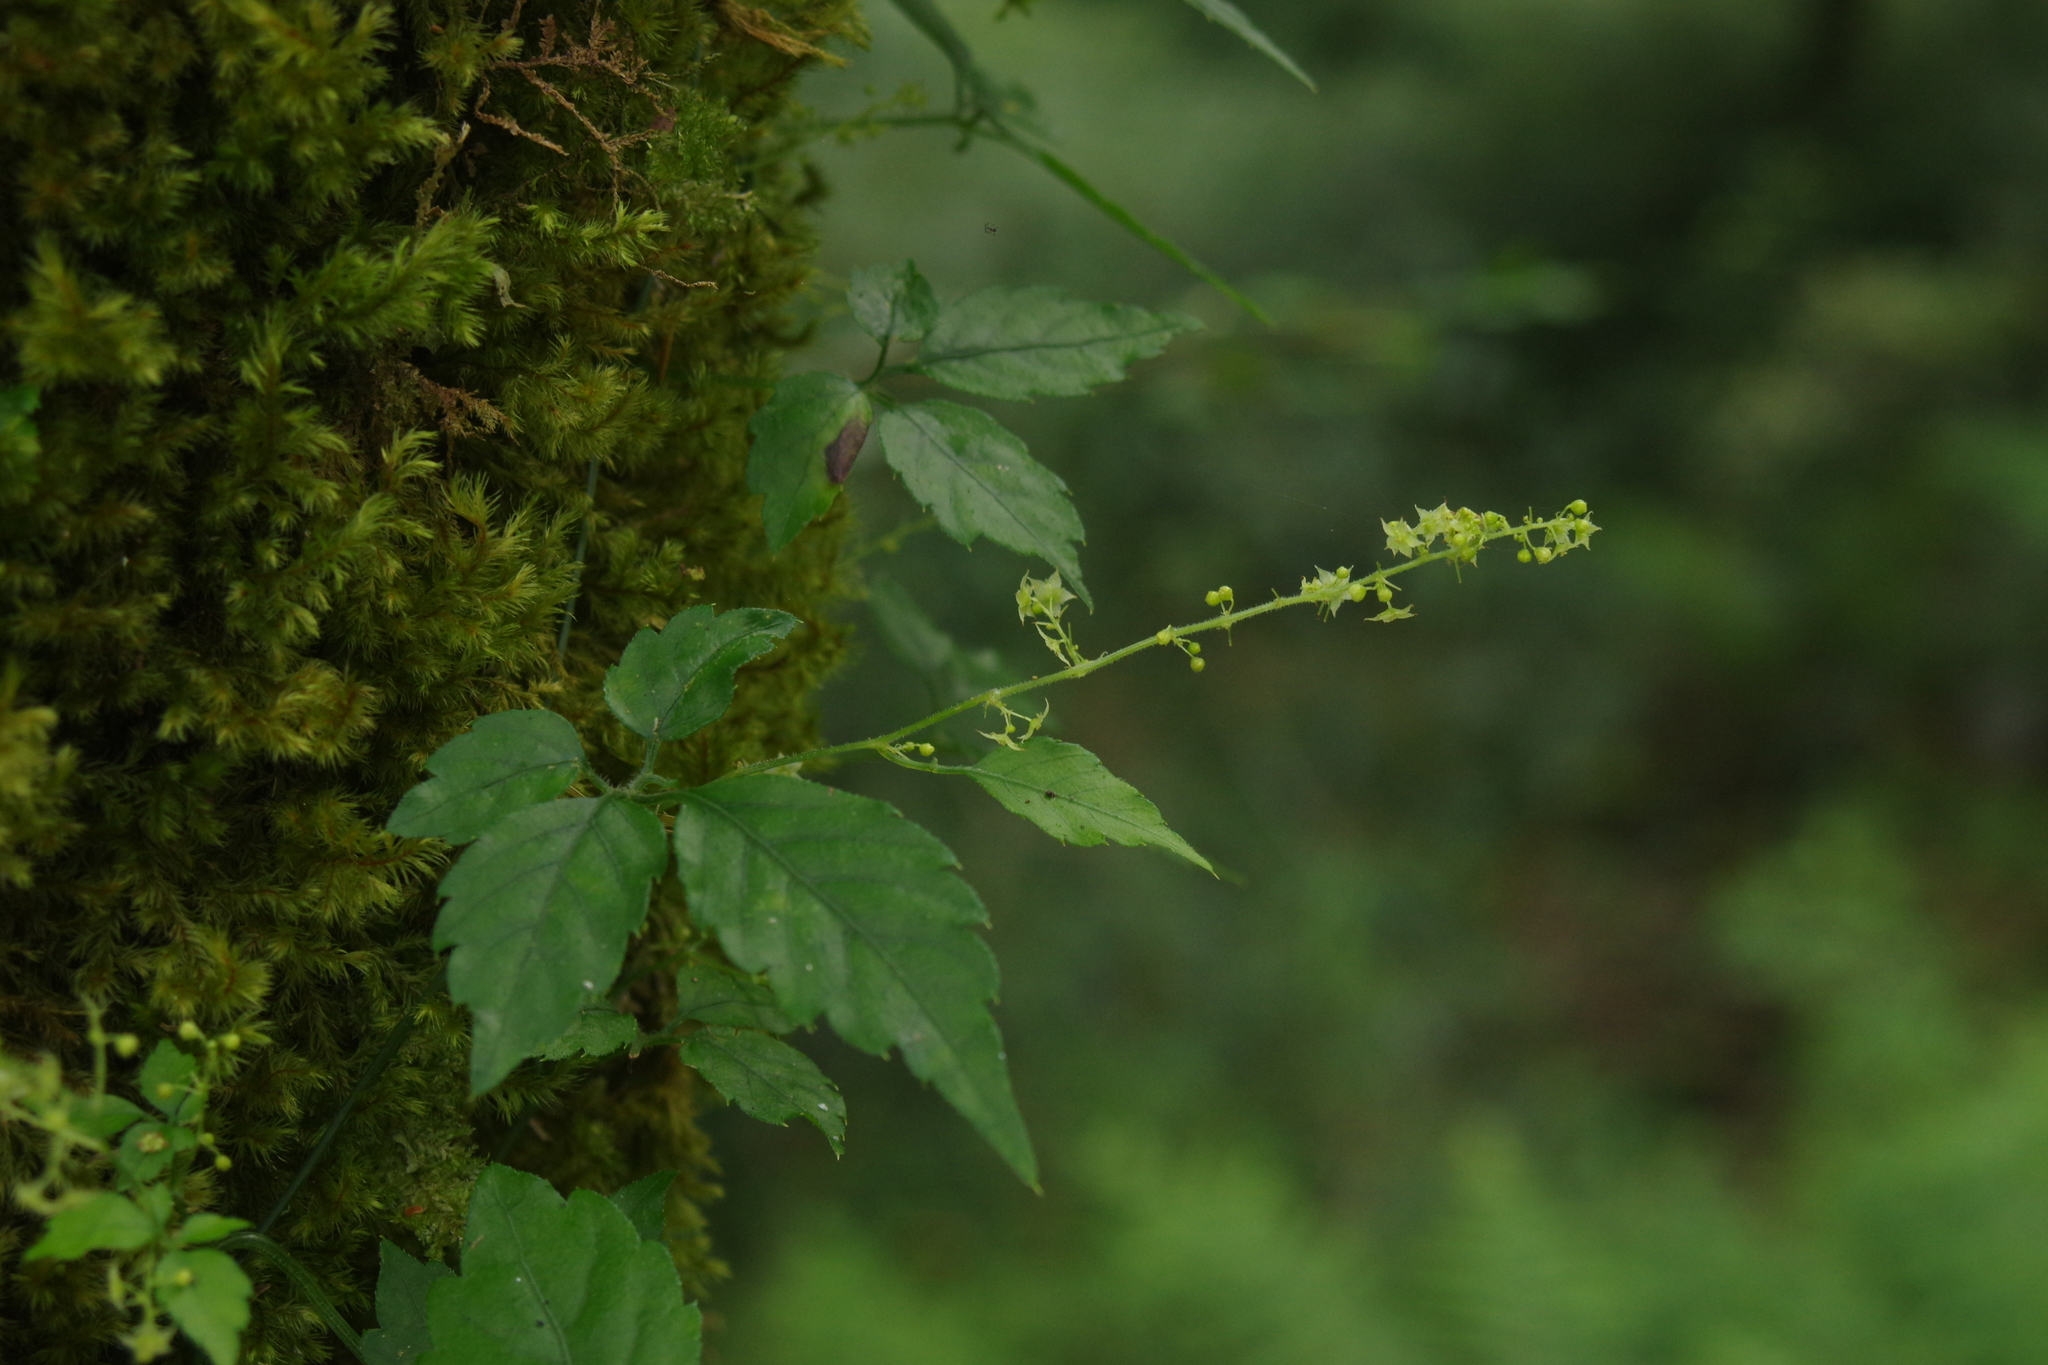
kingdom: Plantae
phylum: Tracheophyta
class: Magnoliopsida
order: Cucurbitales
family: Cucurbitaceae
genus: Gynostemma
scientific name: Gynostemma pentaphyllum
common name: Gynostemma
